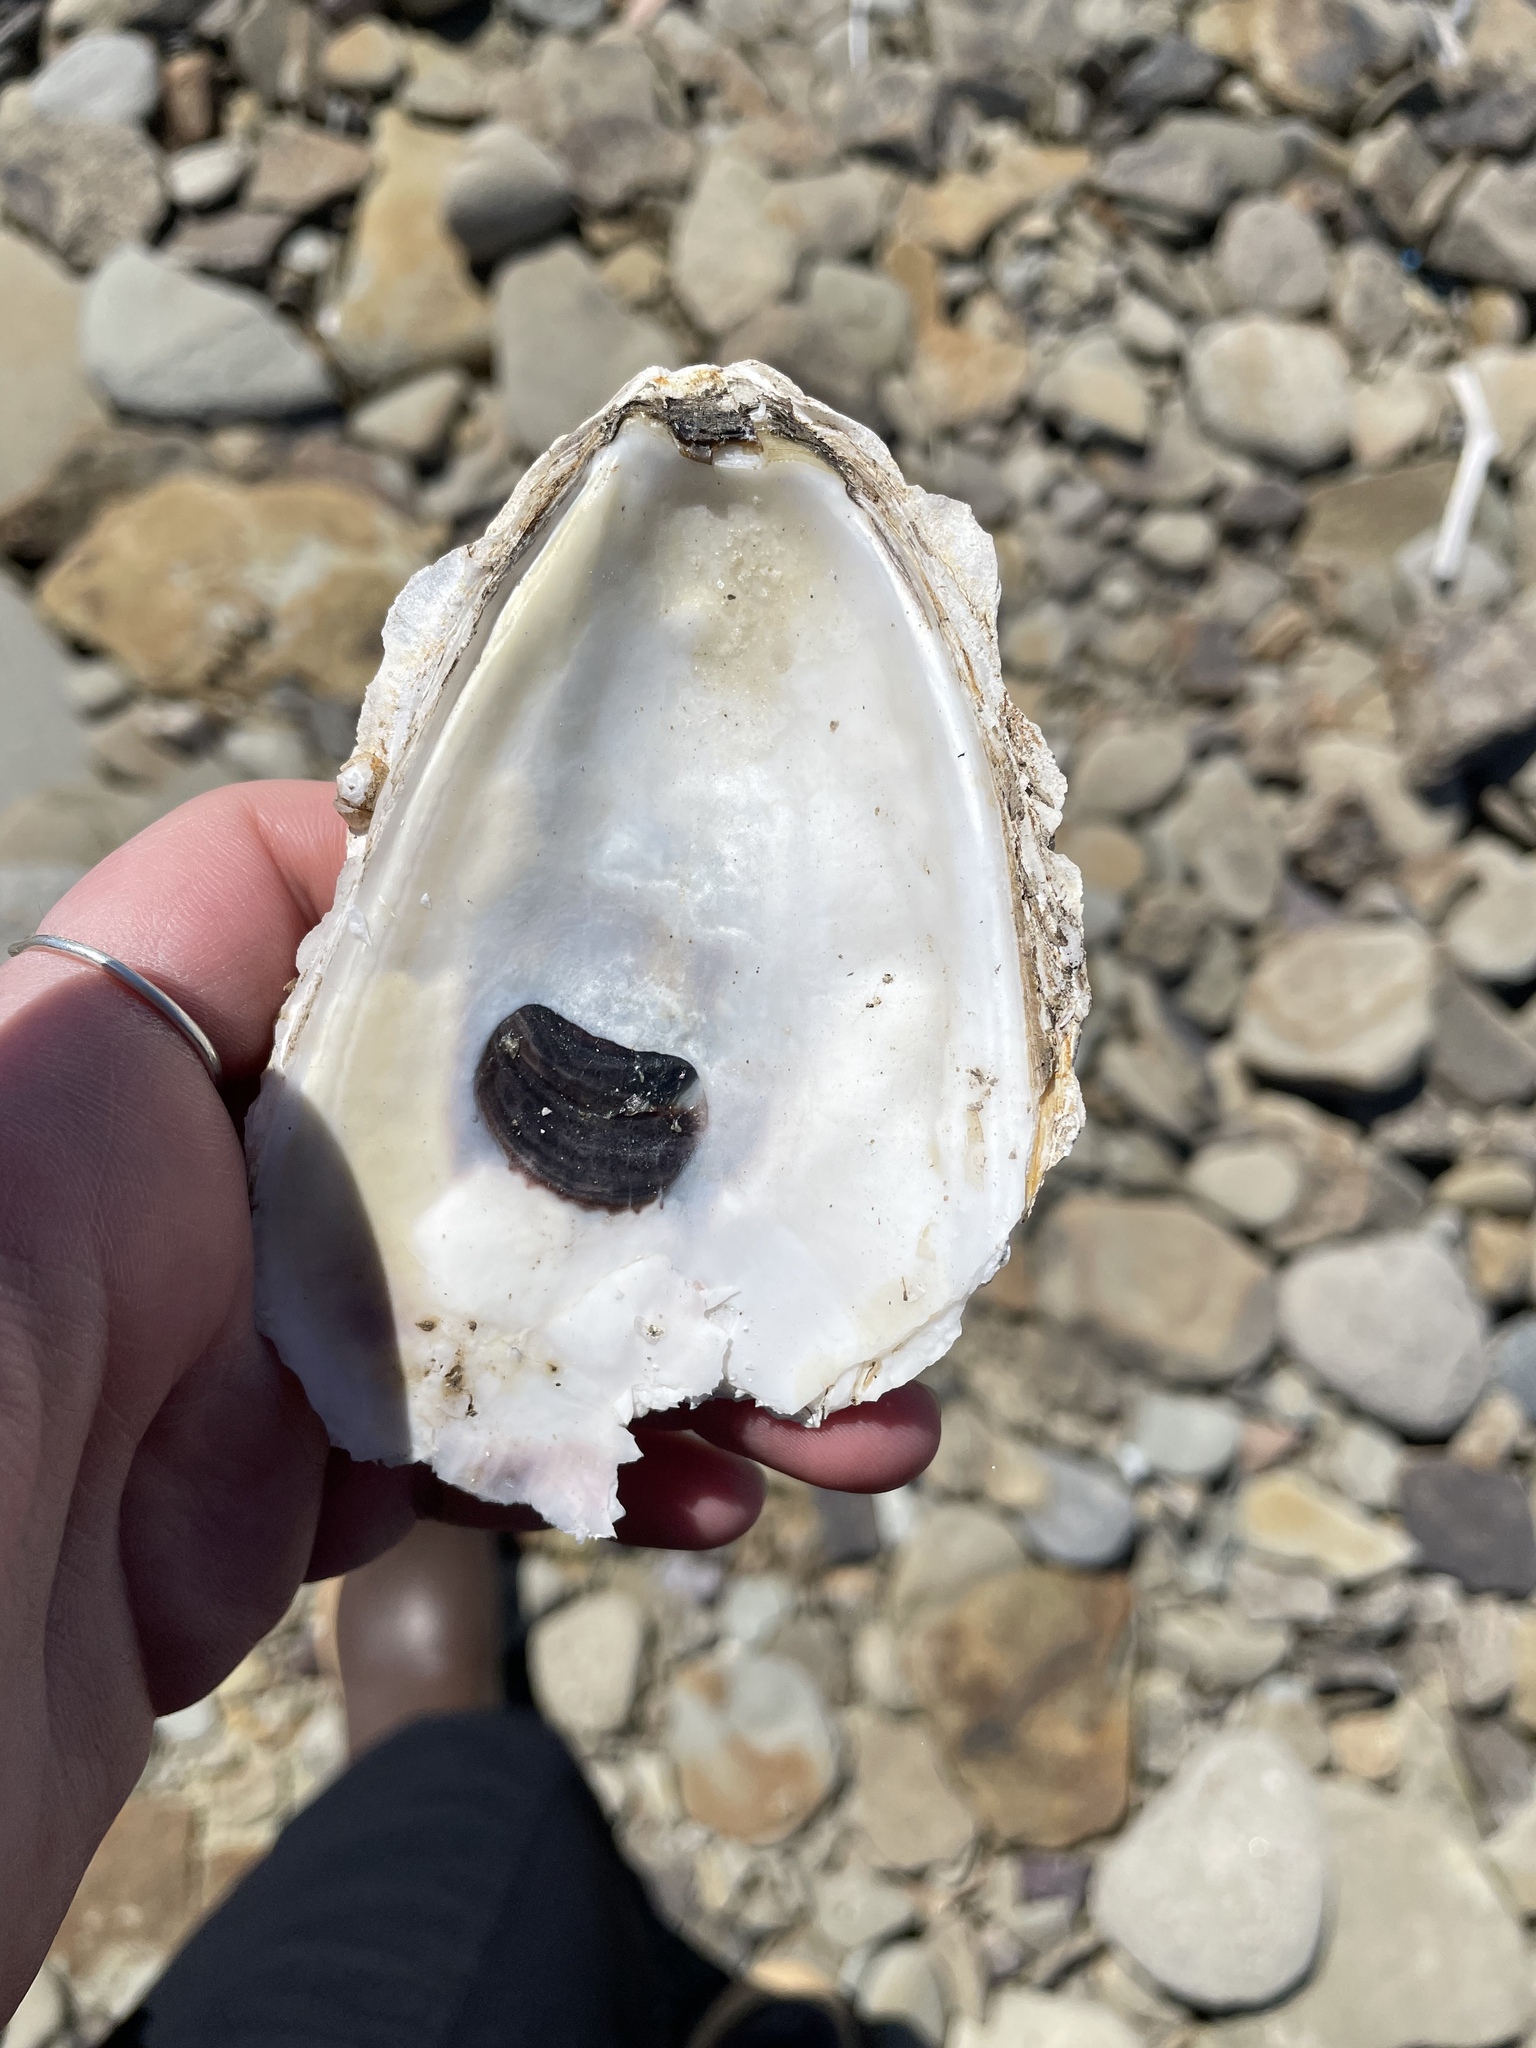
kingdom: Animalia
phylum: Mollusca
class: Bivalvia
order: Ostreida
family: Ostreidae
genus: Crassostrea
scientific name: Crassostrea virginica
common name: American oyster
